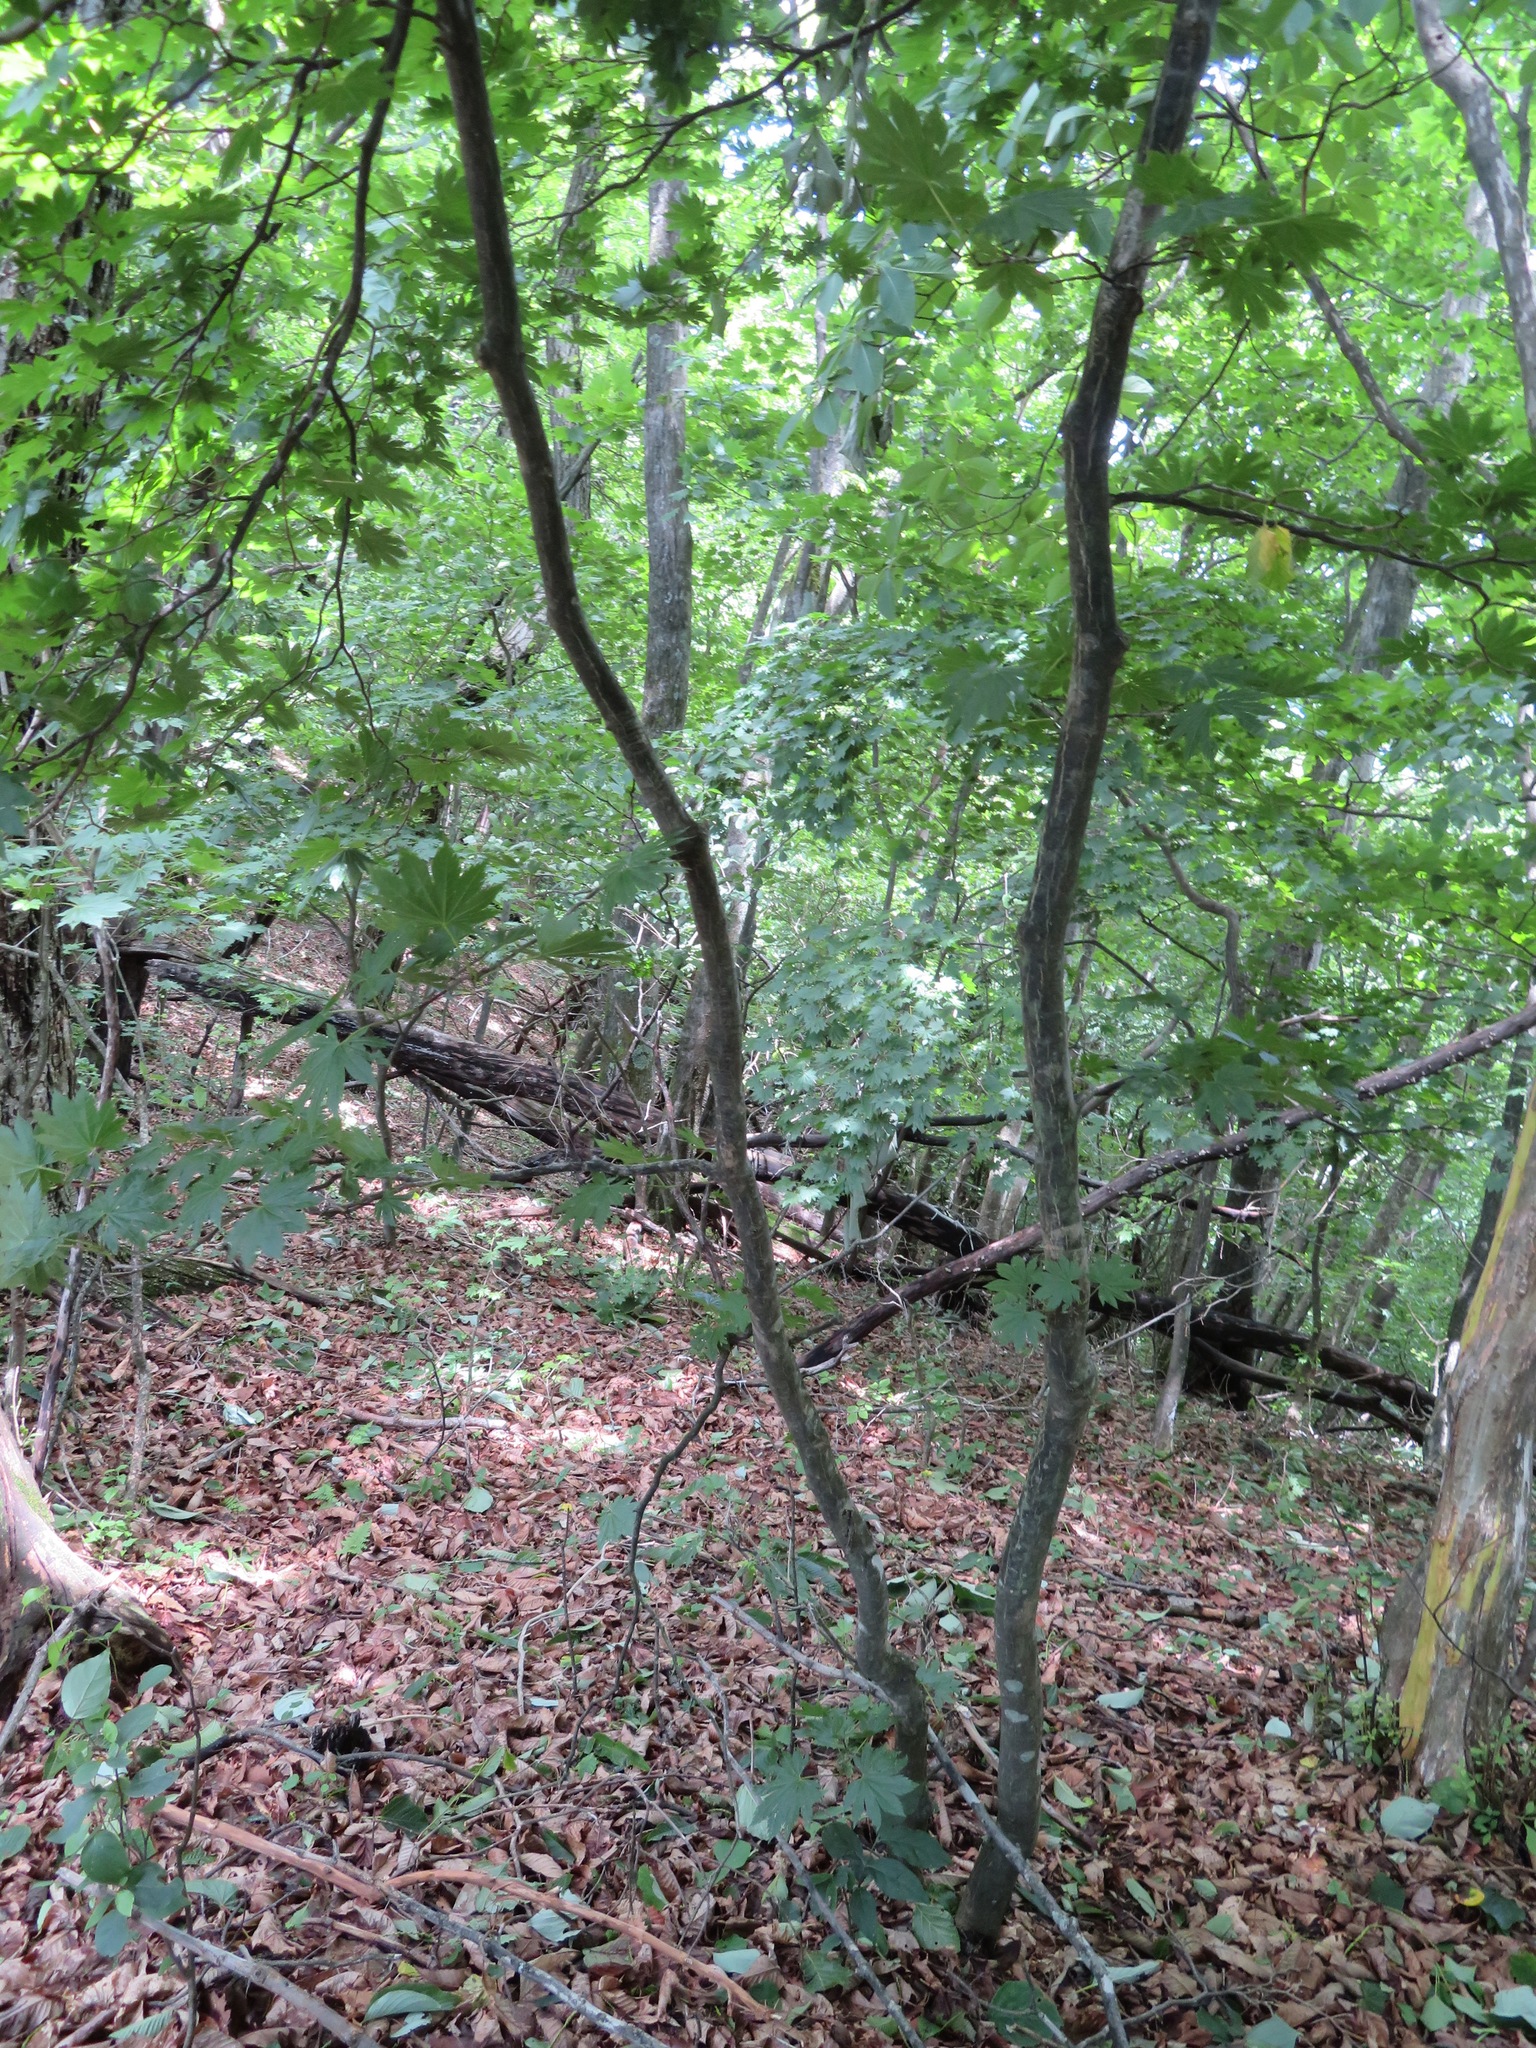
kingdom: Plantae
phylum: Tracheophyta
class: Magnoliopsida
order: Sapindales
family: Sapindaceae
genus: Acer
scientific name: Acer shirasawanum
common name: Full moon maple
